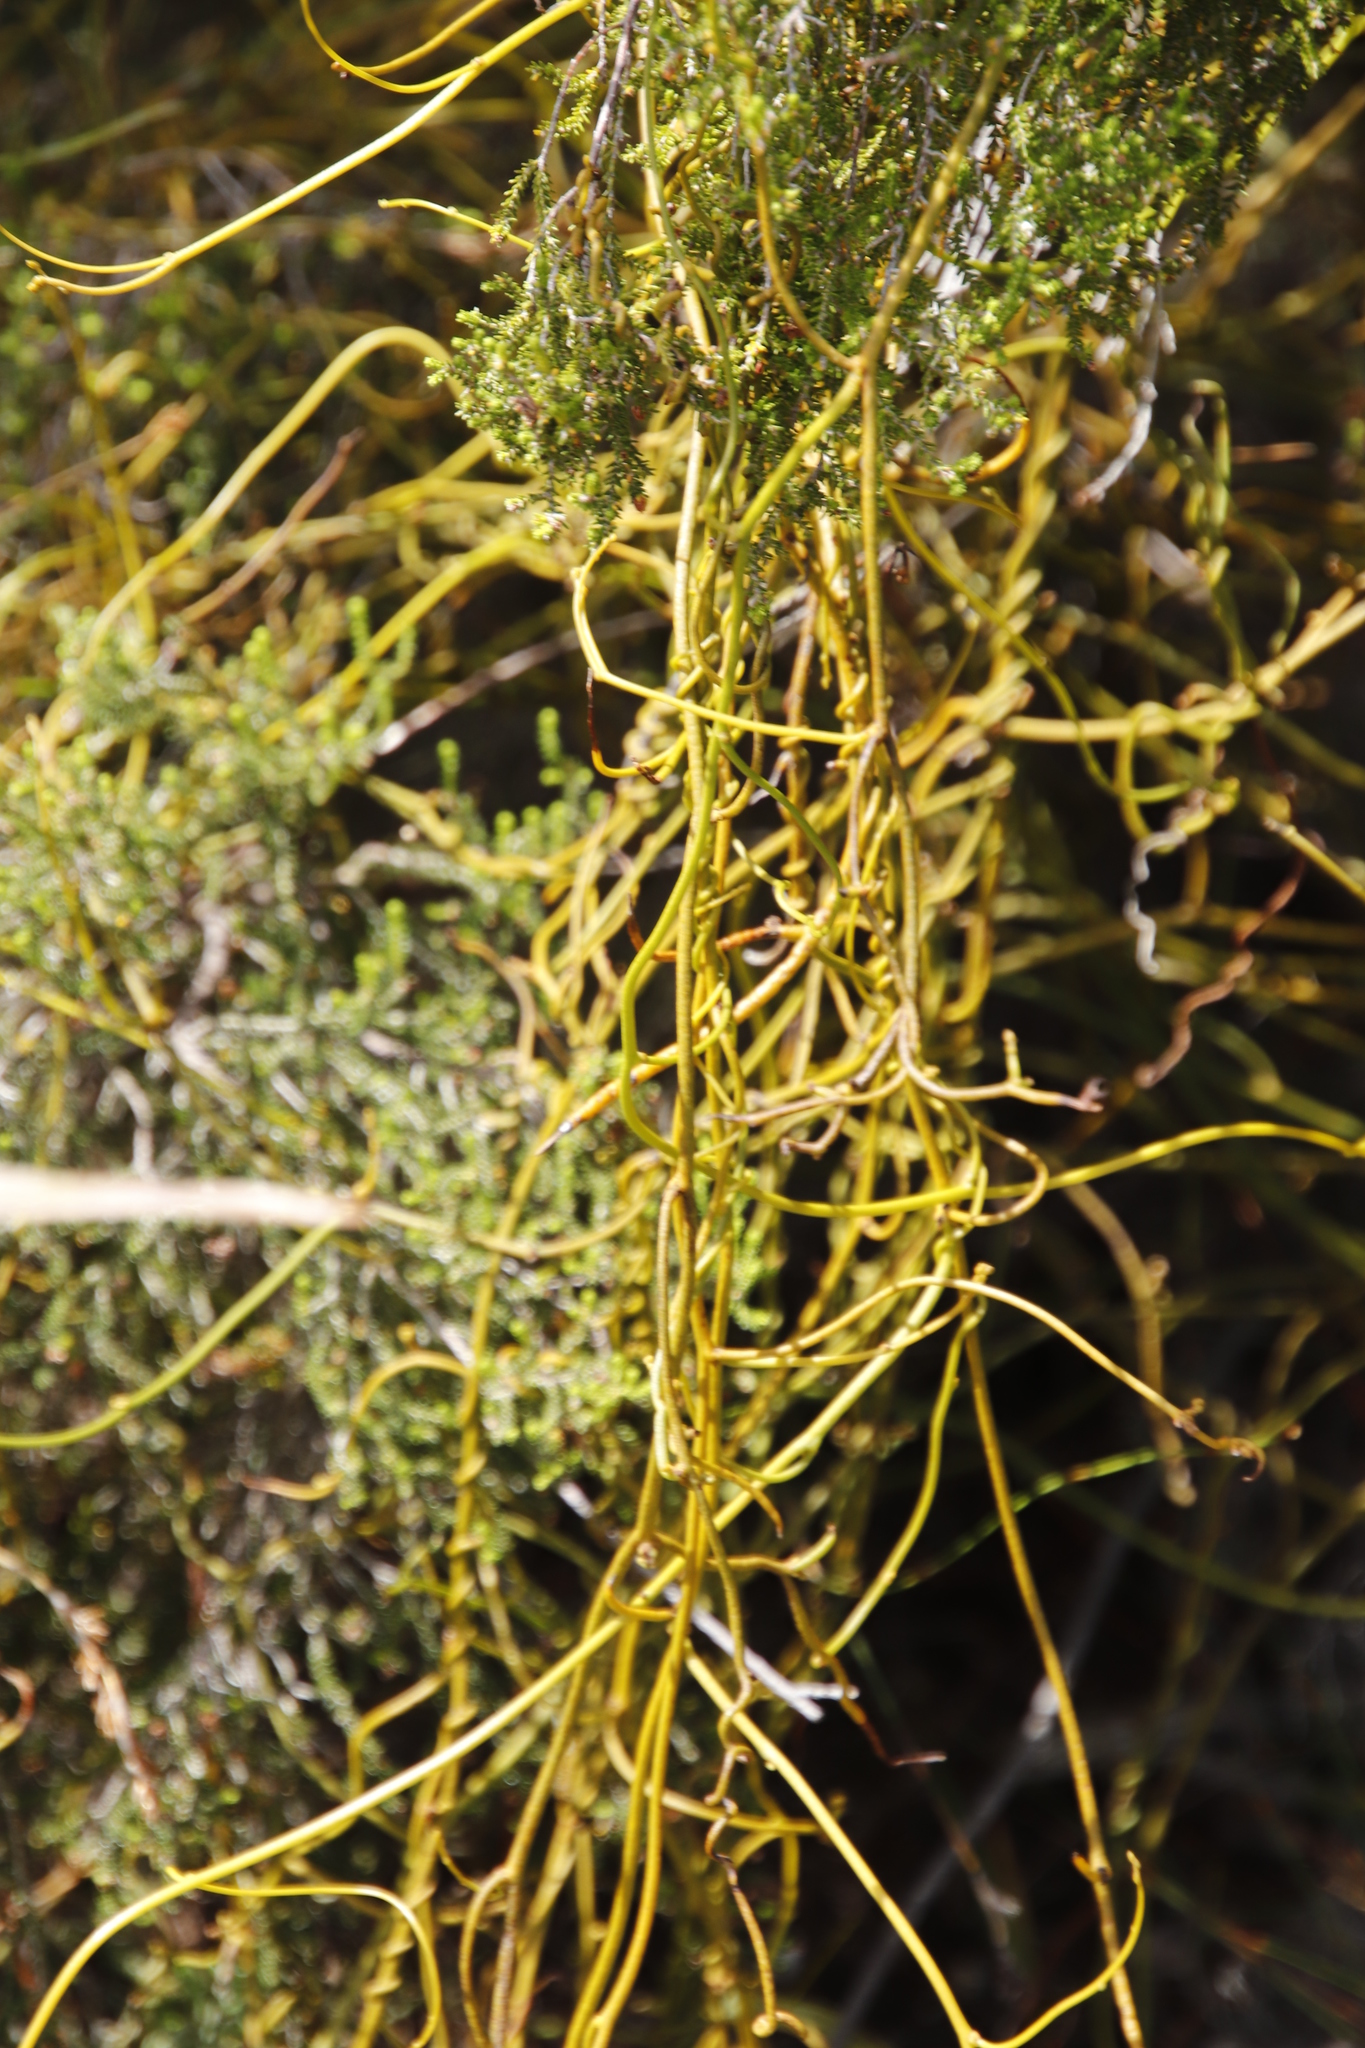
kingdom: Plantae
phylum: Tracheophyta
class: Magnoliopsida
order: Laurales
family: Lauraceae
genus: Cassytha
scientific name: Cassytha ciliolata
